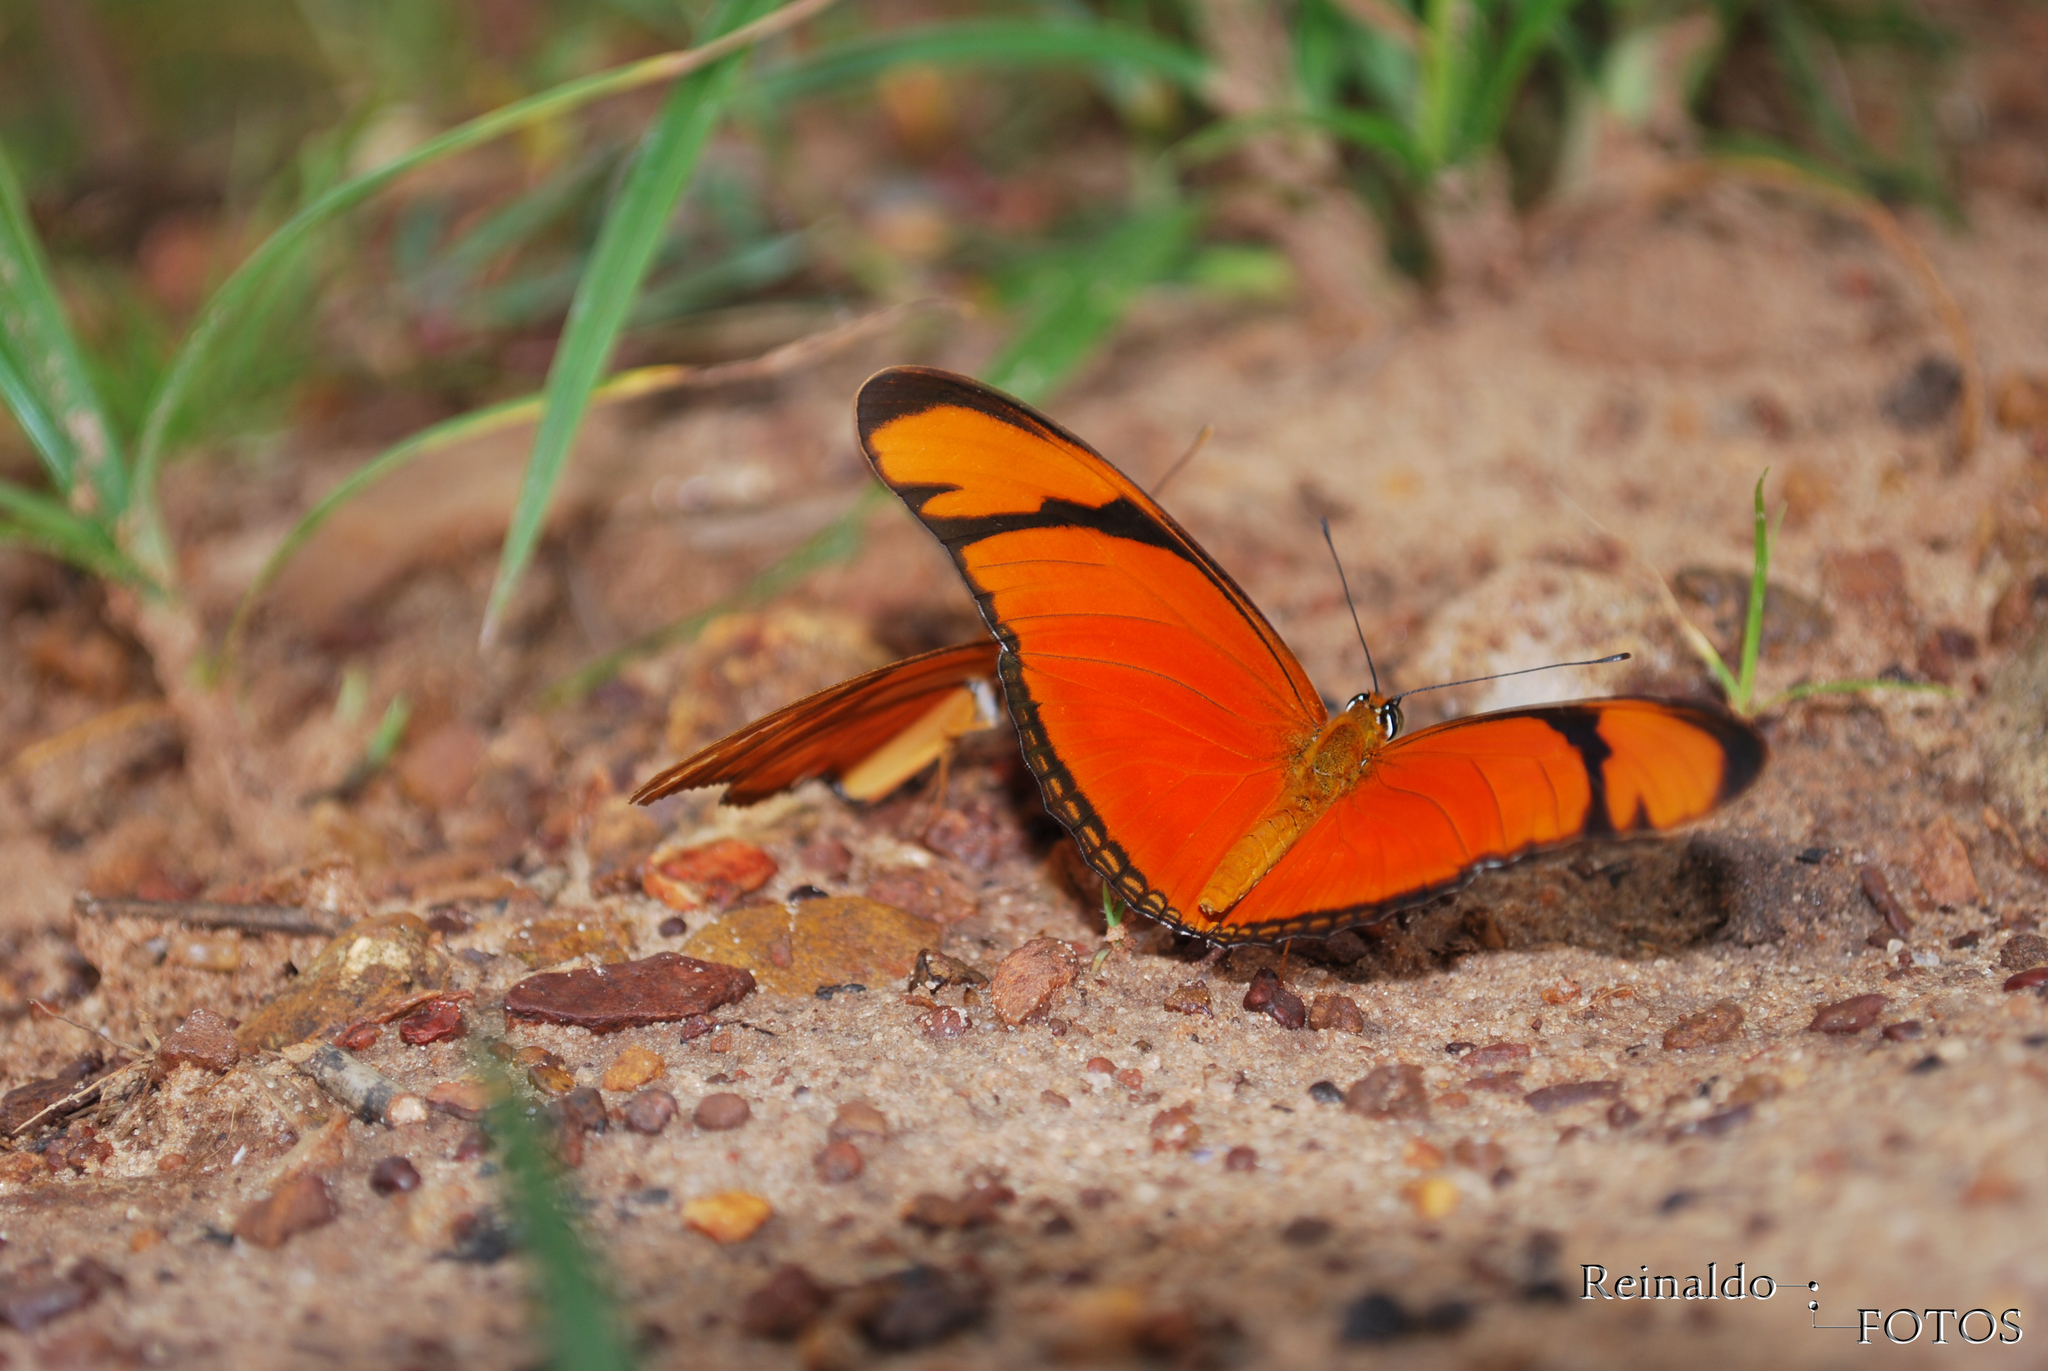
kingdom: Animalia
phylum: Arthropoda
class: Insecta
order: Lepidoptera
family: Nymphalidae
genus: Dryas
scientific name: Dryas iulia
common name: Flambeau
